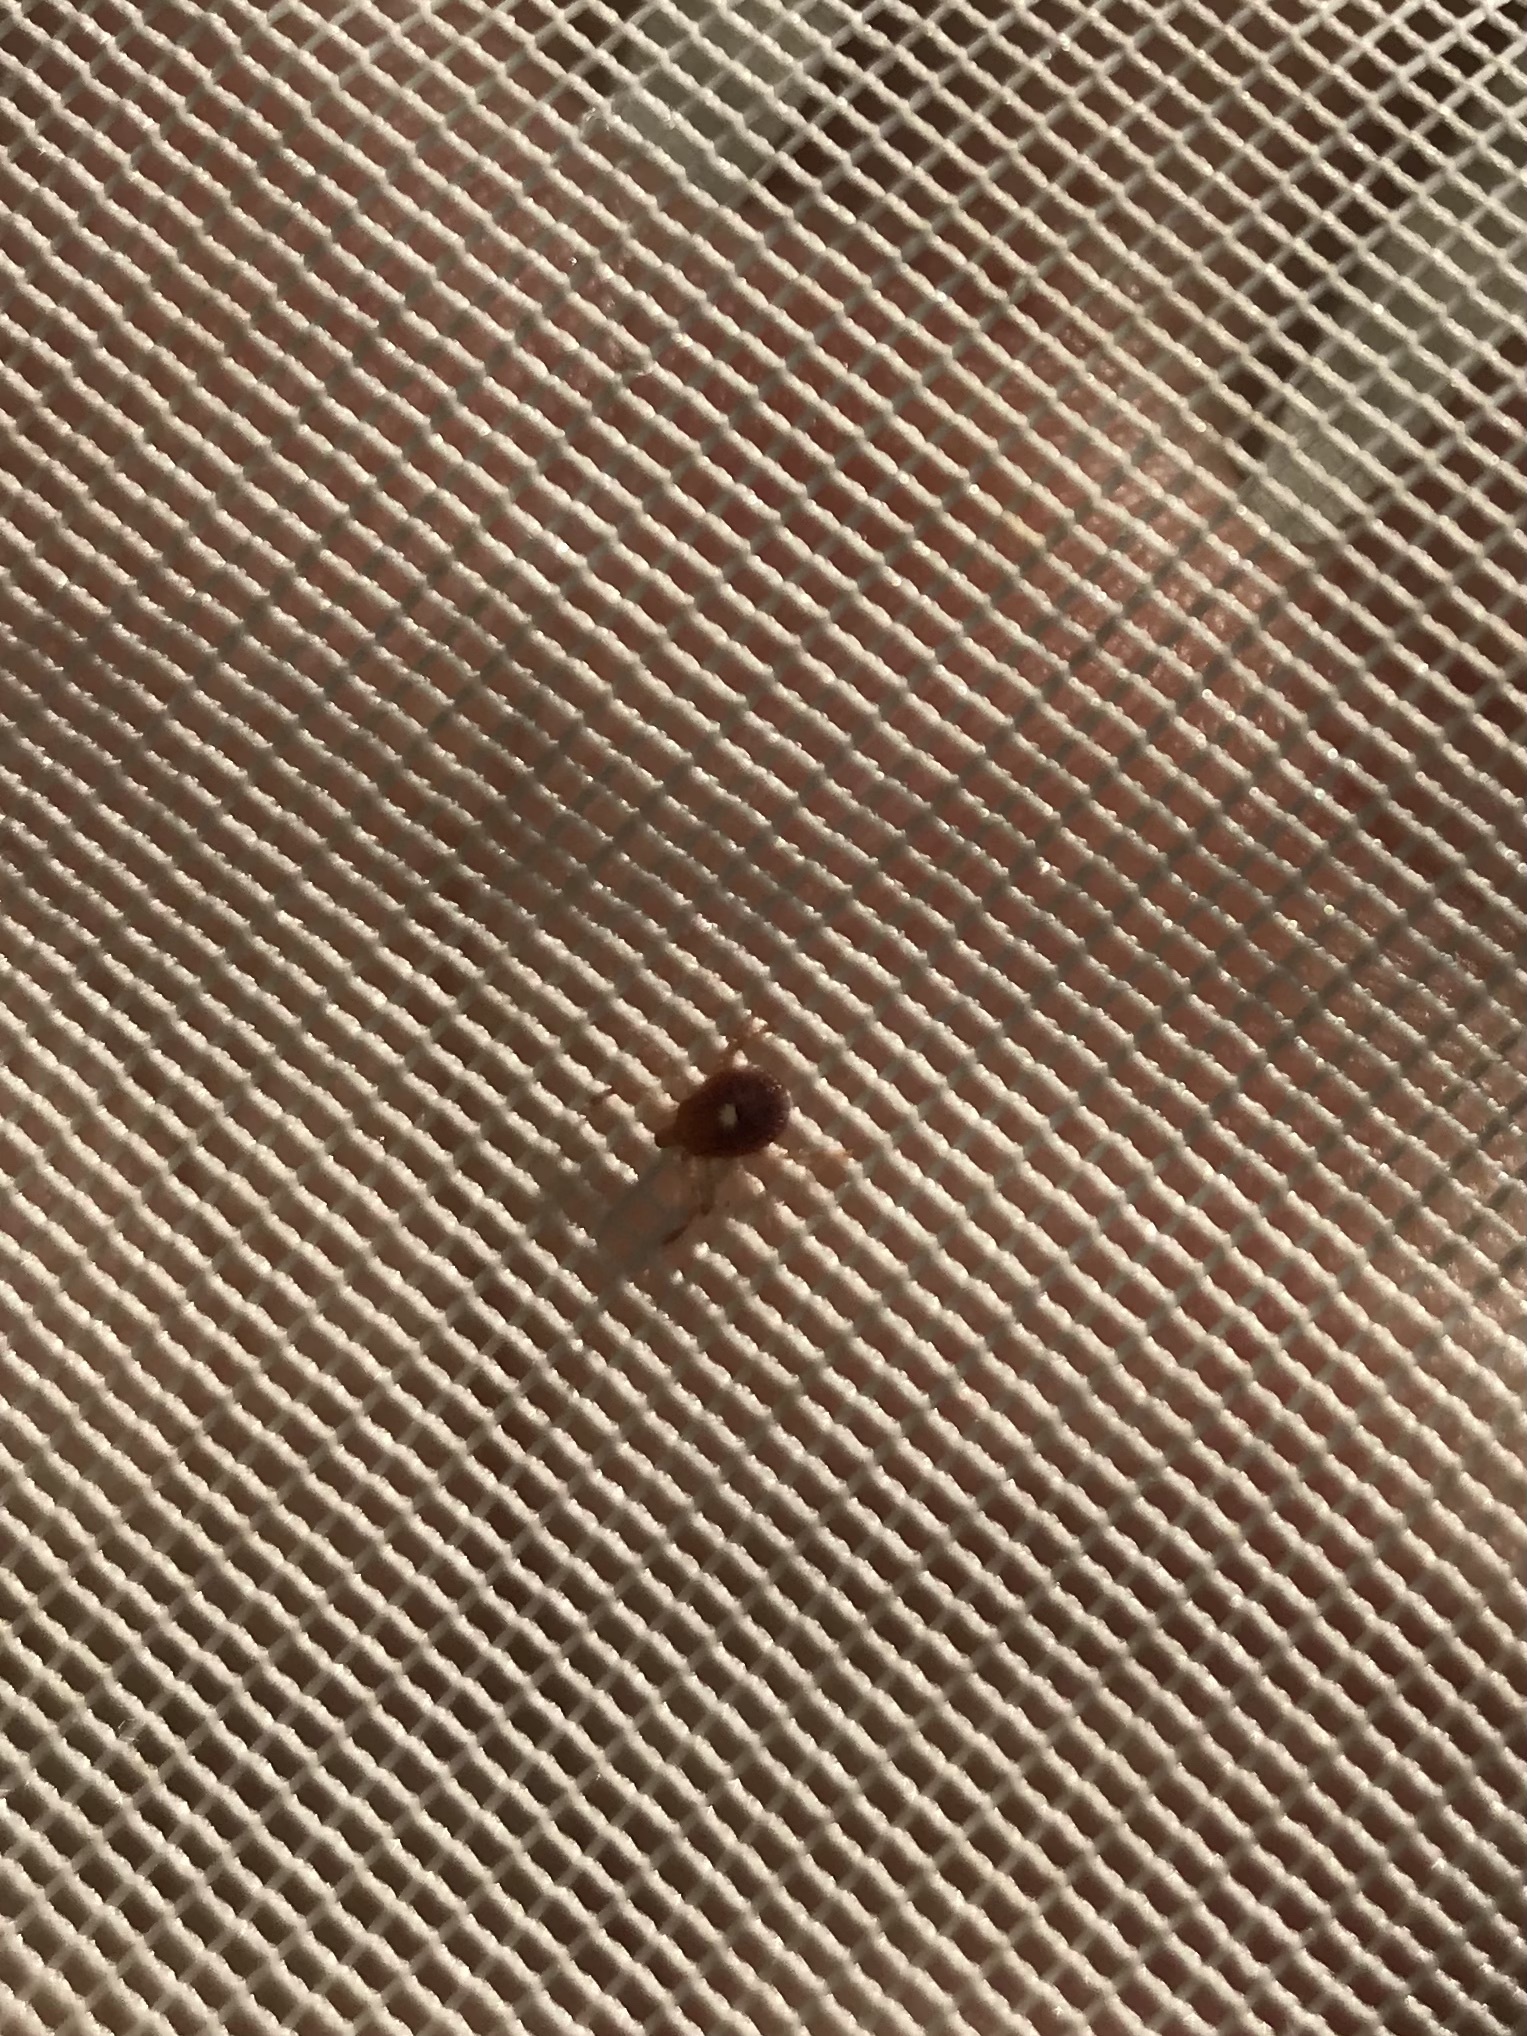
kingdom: Animalia
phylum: Arthropoda
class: Arachnida
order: Ixodida
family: Ixodidae
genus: Amblyomma
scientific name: Amblyomma americanum
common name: Lone star tick
